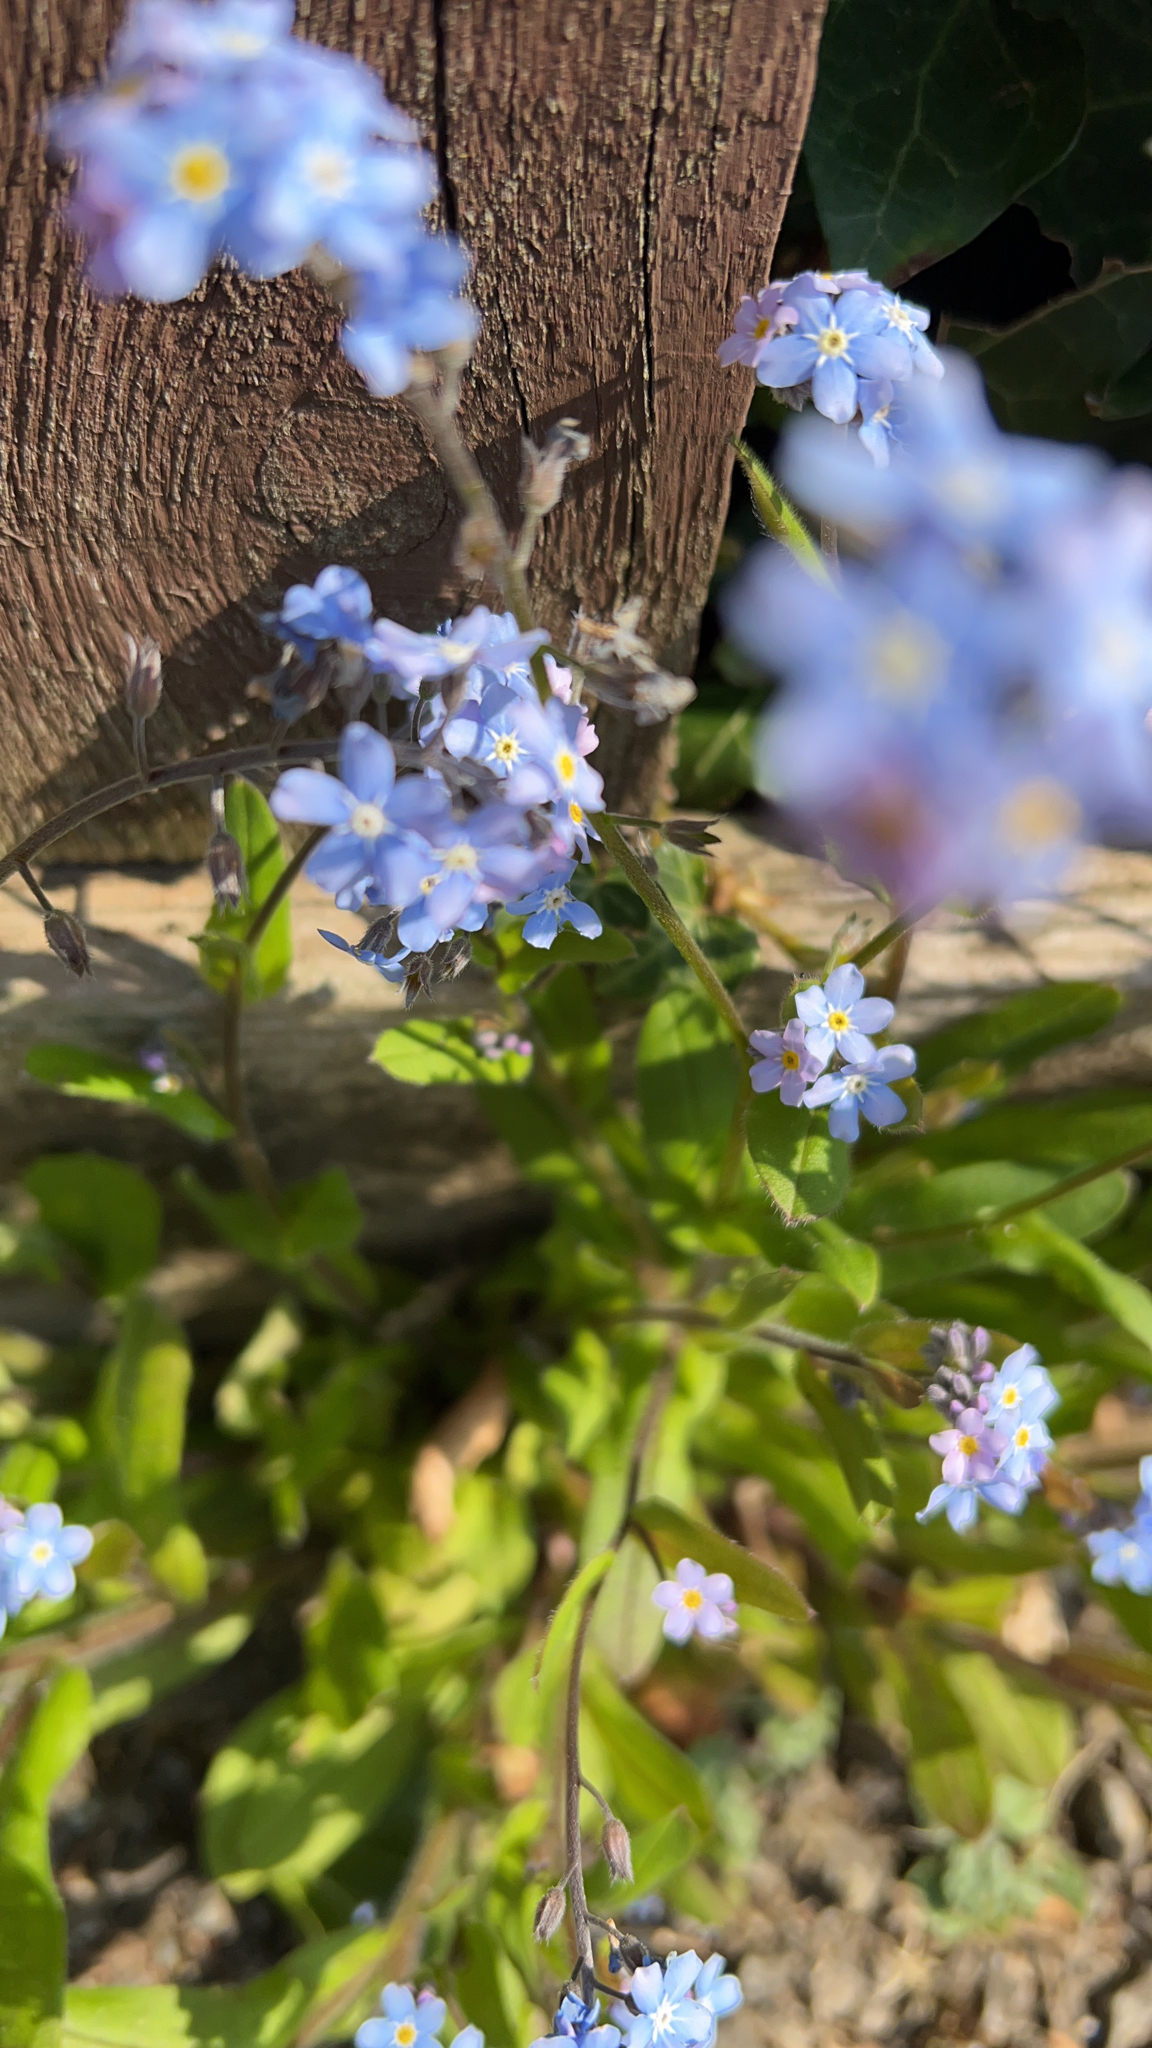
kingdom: Plantae
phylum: Tracheophyta
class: Magnoliopsida
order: Boraginales
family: Boraginaceae
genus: Myosotis
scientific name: Myosotis sylvatica
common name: Wood forget-me-not
